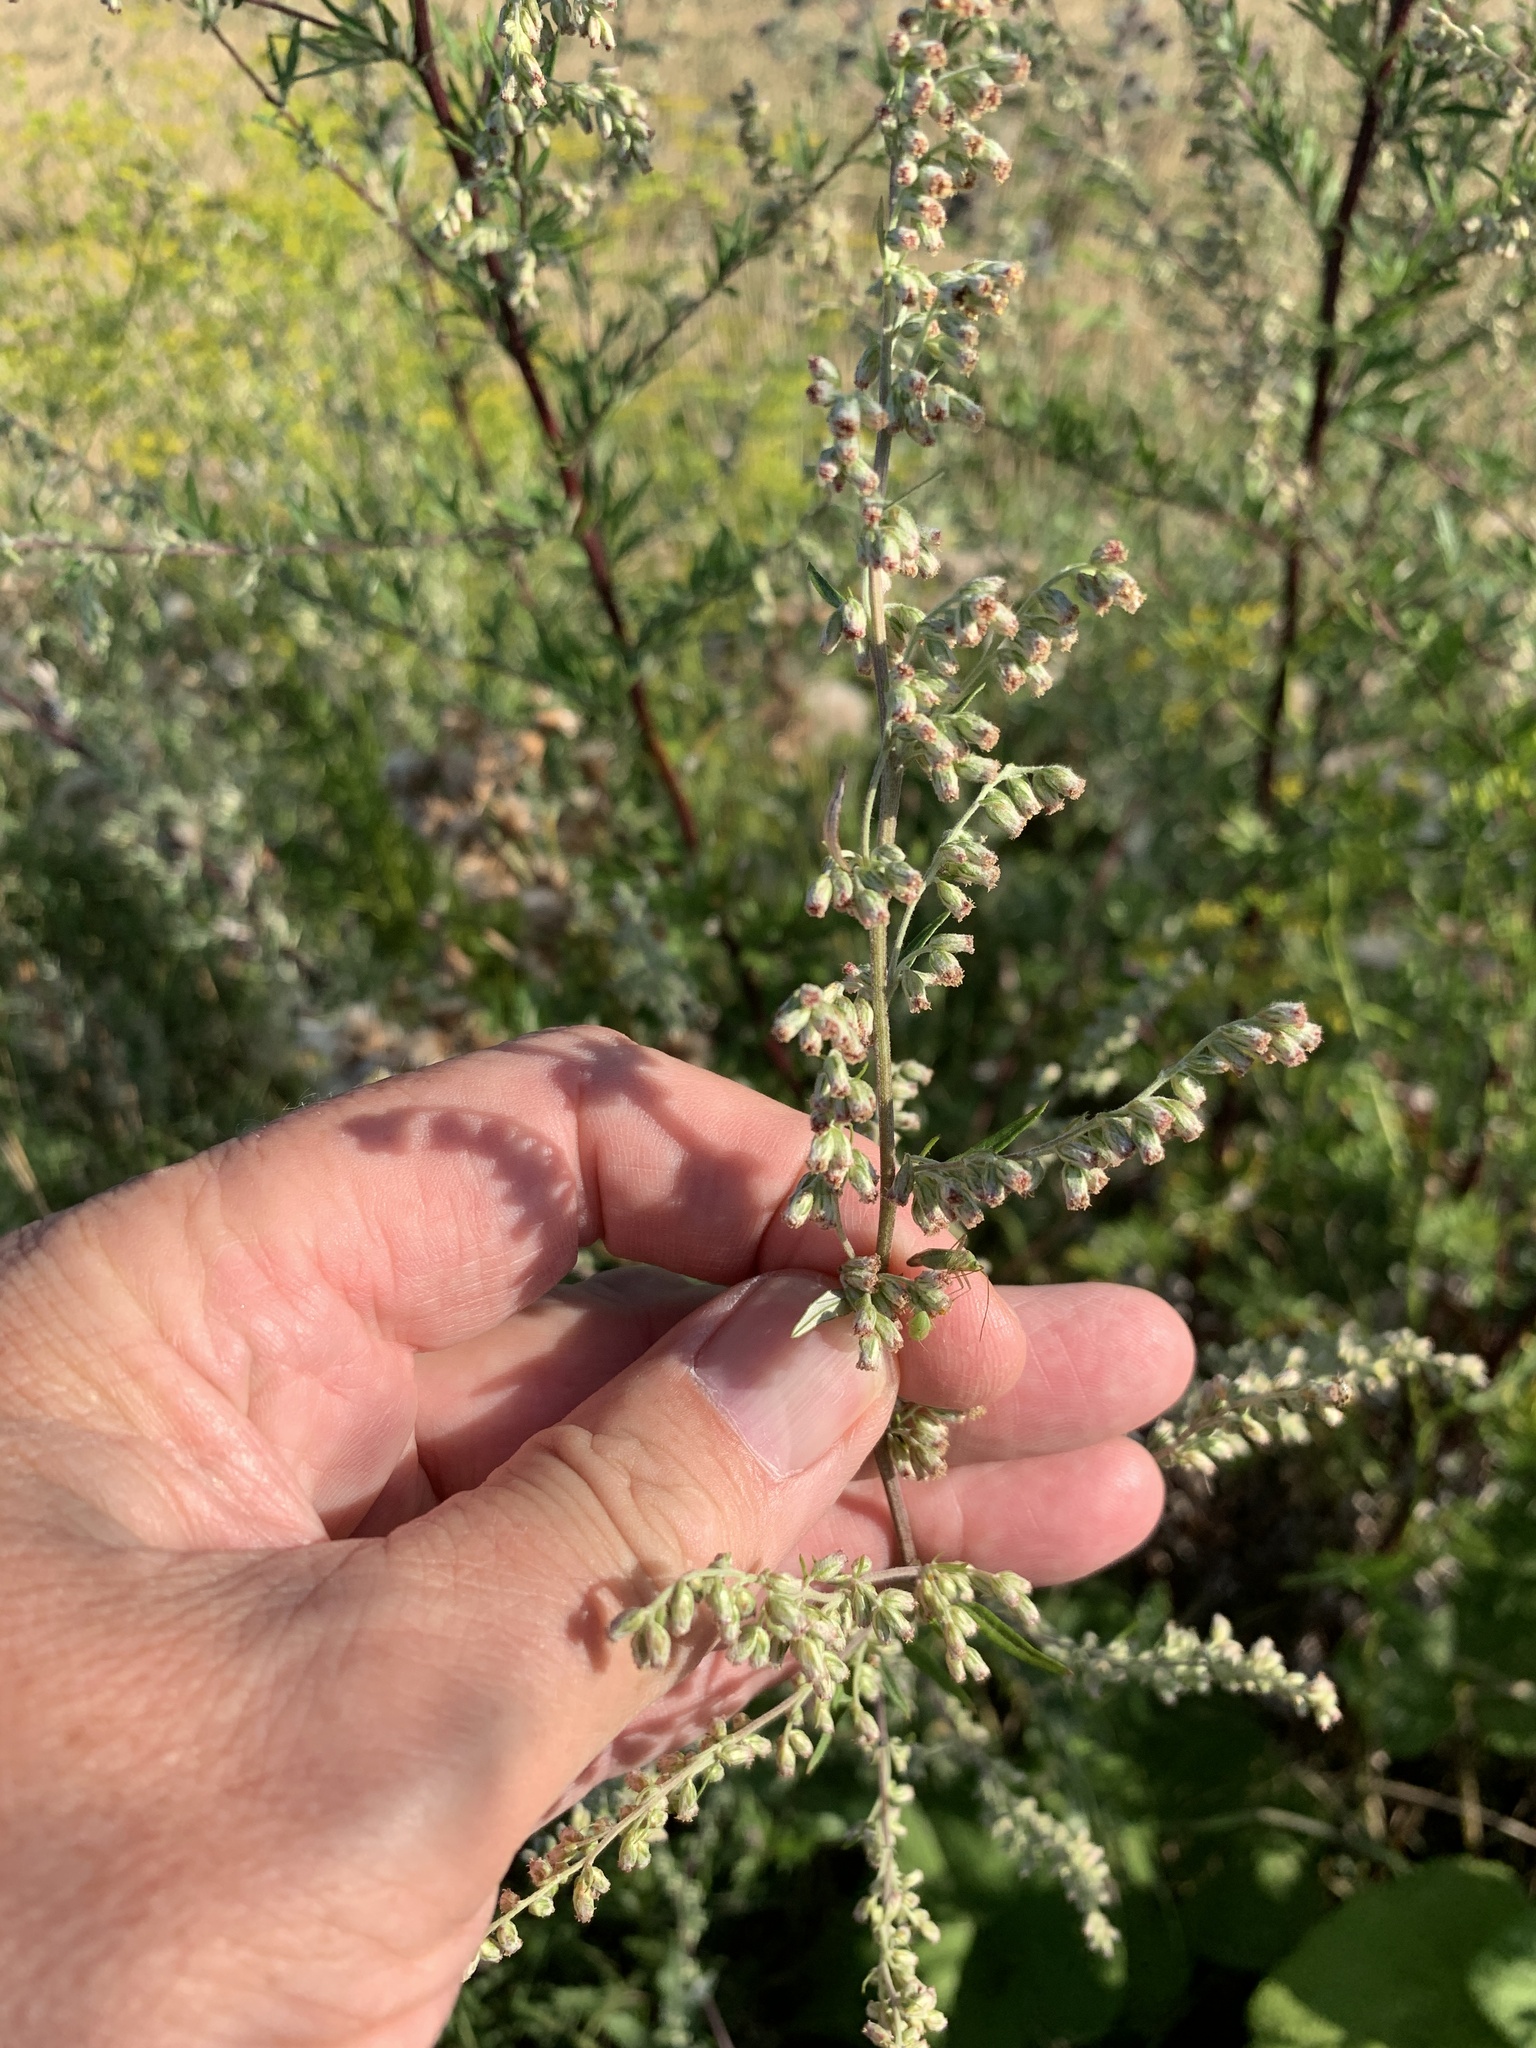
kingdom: Plantae
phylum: Tracheophyta
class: Magnoliopsida
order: Asterales
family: Asteraceae
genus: Artemisia
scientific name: Artemisia vulgaris
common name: Mugwort
